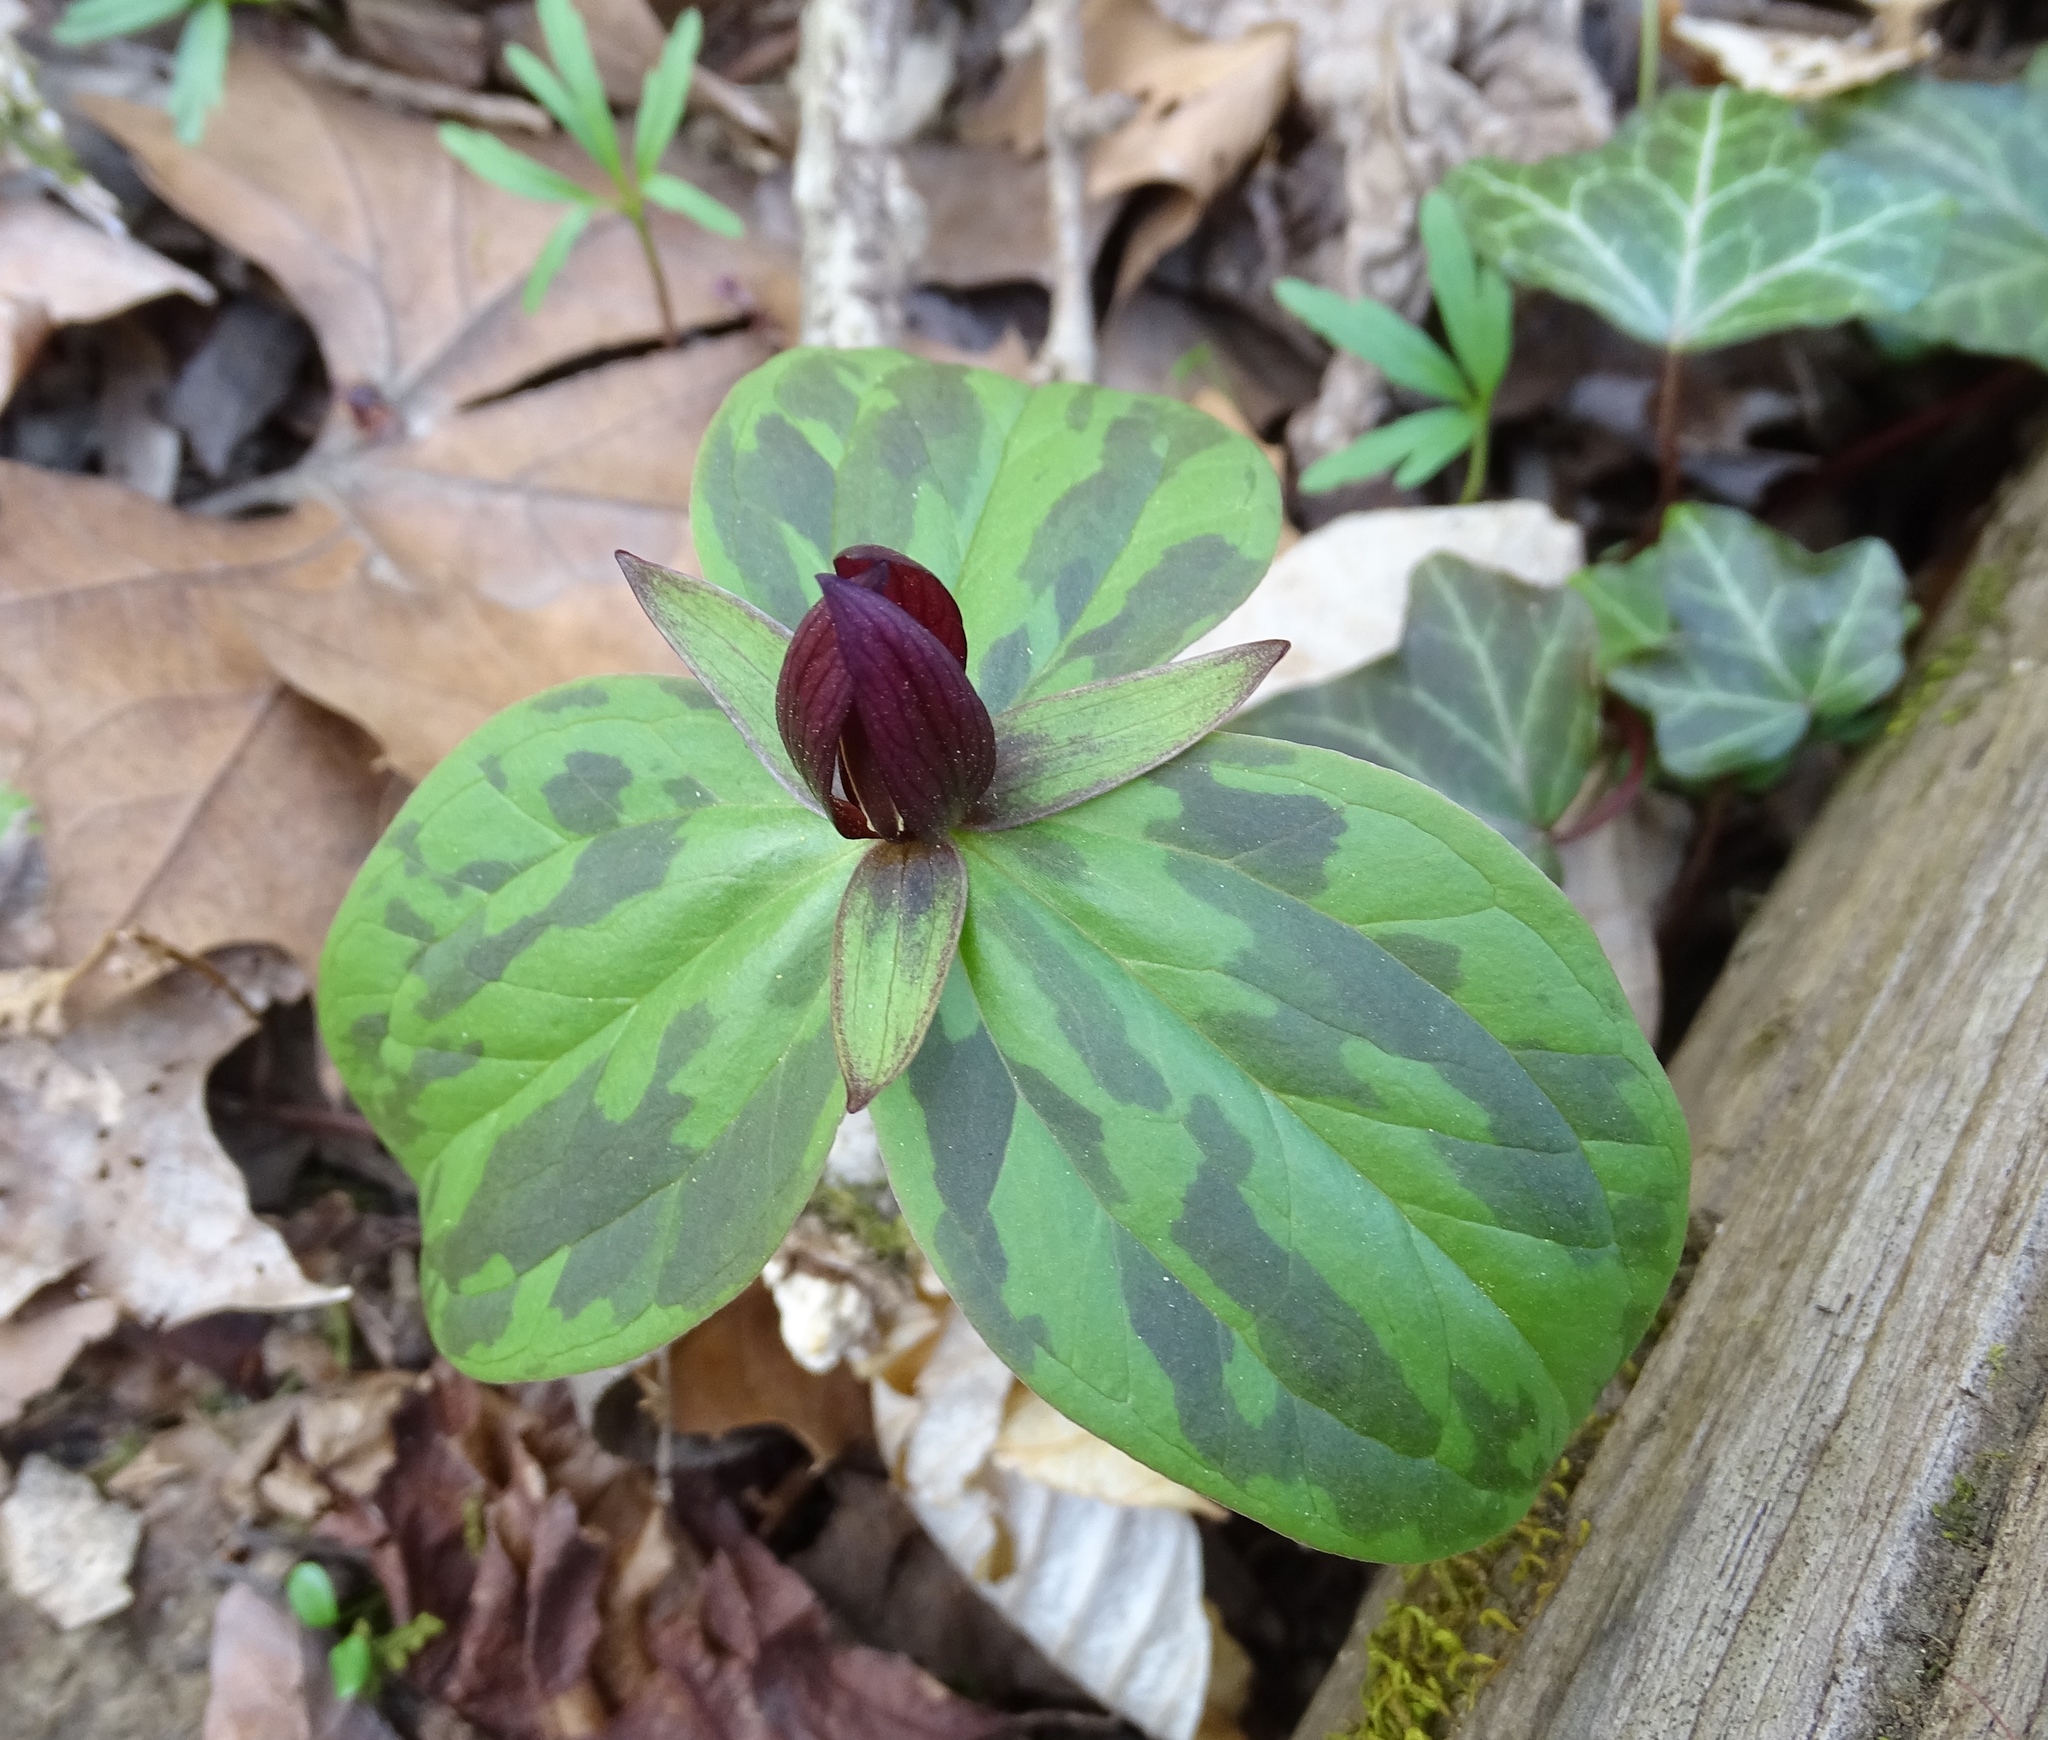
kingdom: Plantae
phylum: Tracheophyta
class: Liliopsida
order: Liliales
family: Melanthiaceae
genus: Trillium
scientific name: Trillium sessile
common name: Sessile trillium
